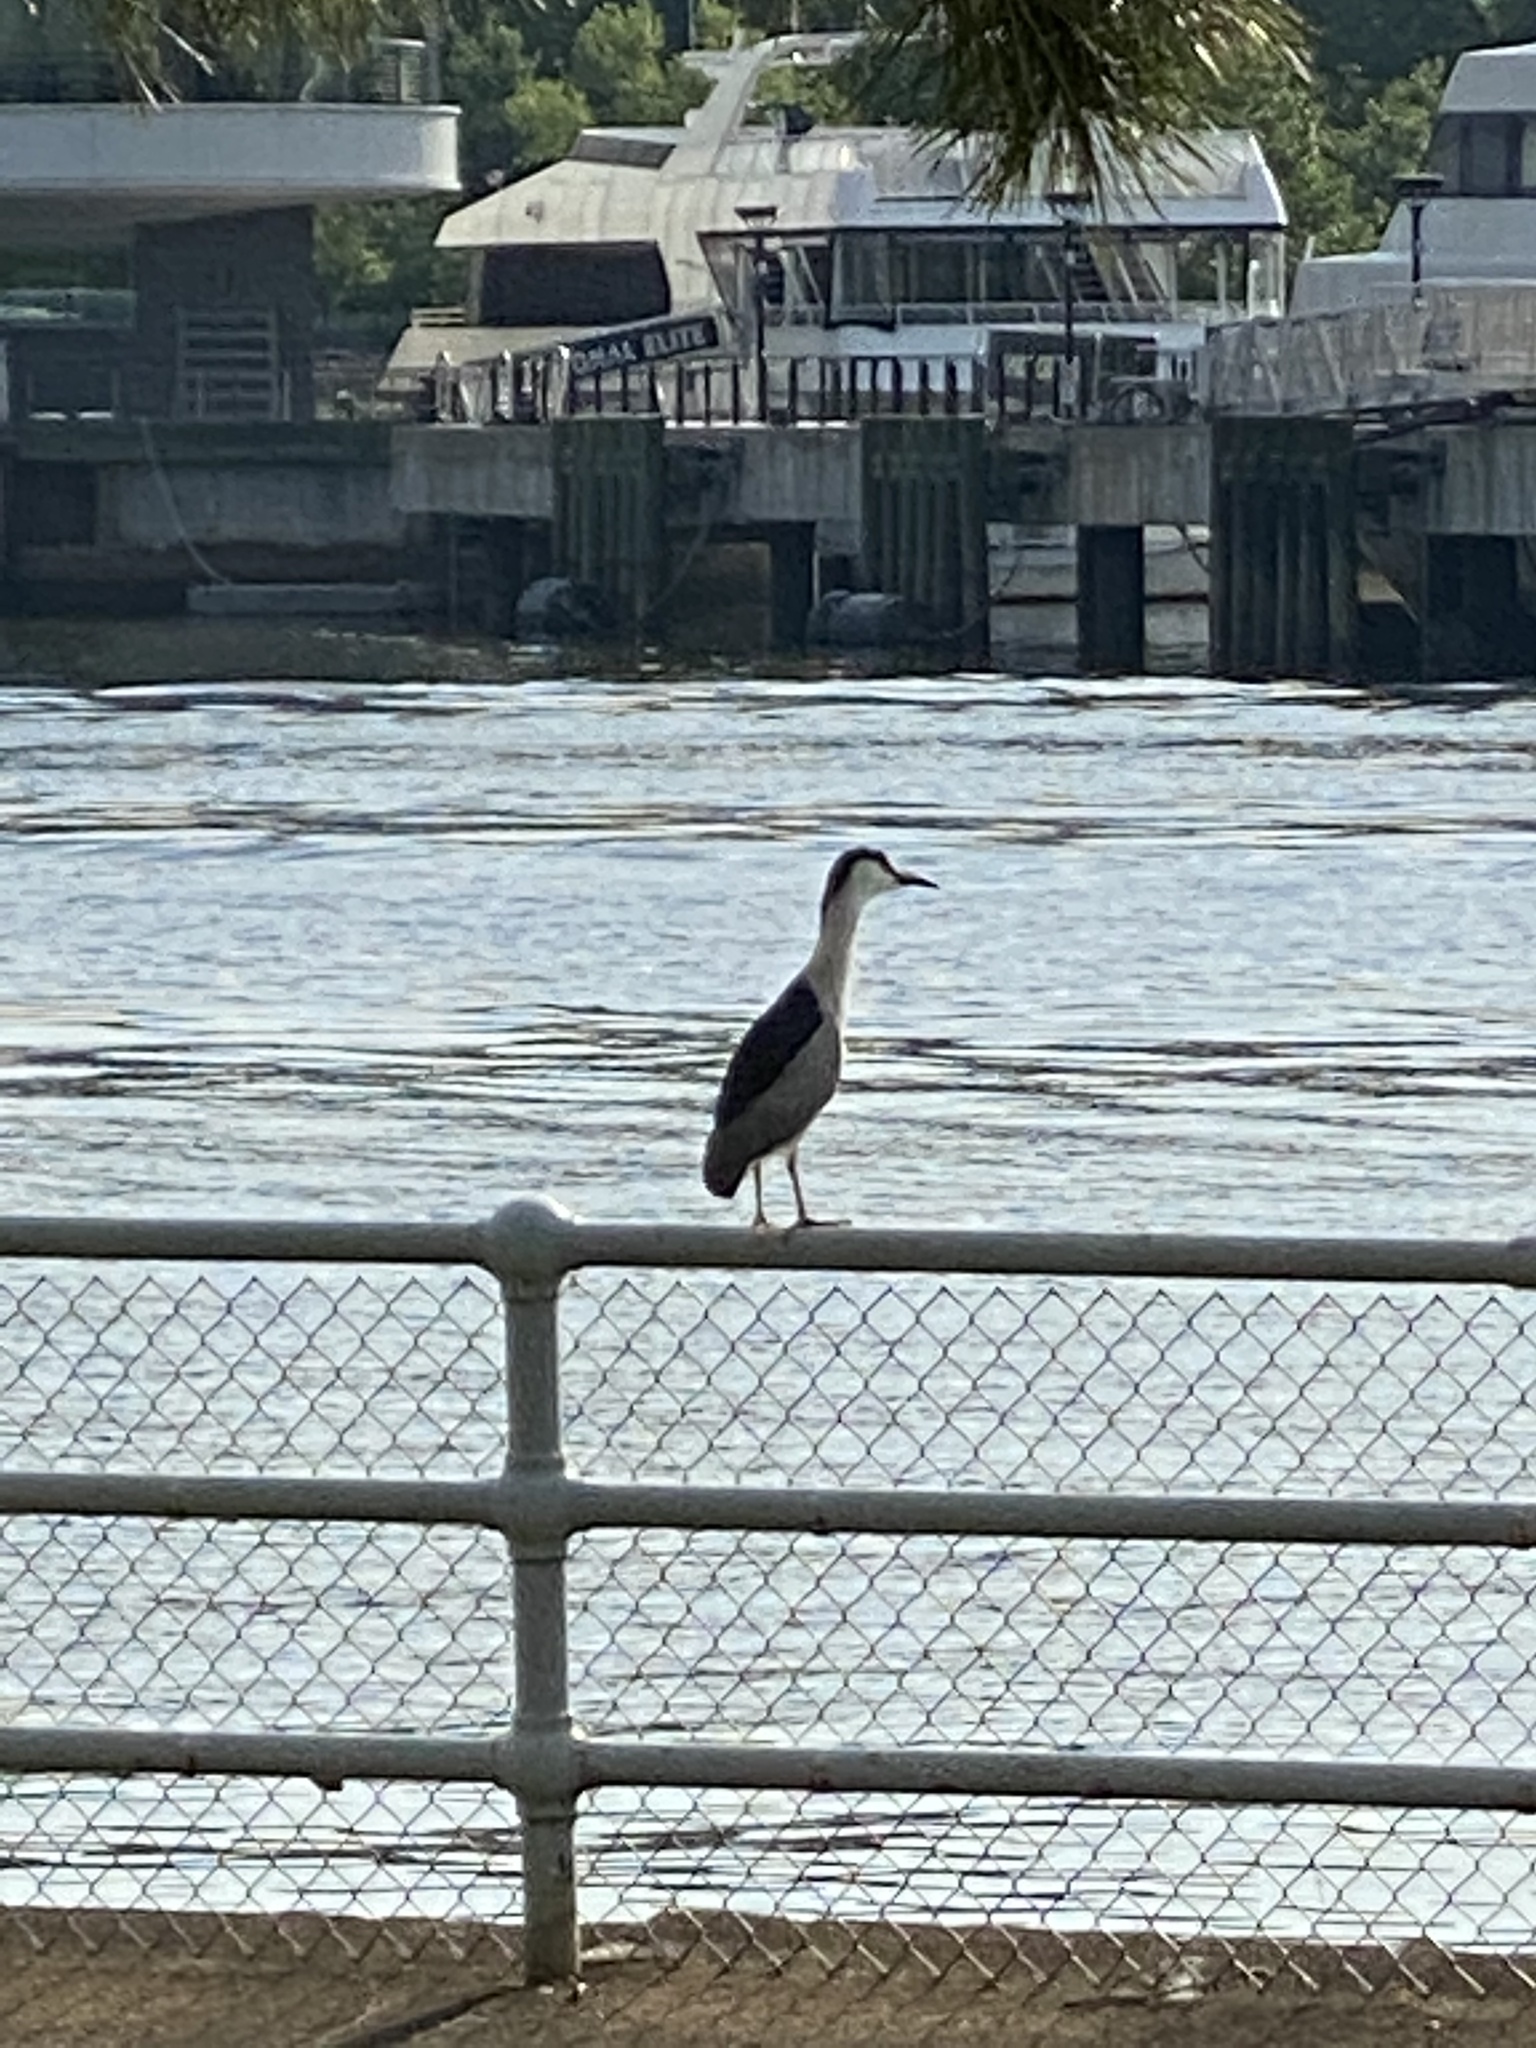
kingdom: Animalia
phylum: Chordata
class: Aves
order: Pelecaniformes
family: Ardeidae
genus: Nycticorax
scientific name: Nycticorax nycticorax
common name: Black-crowned night heron
